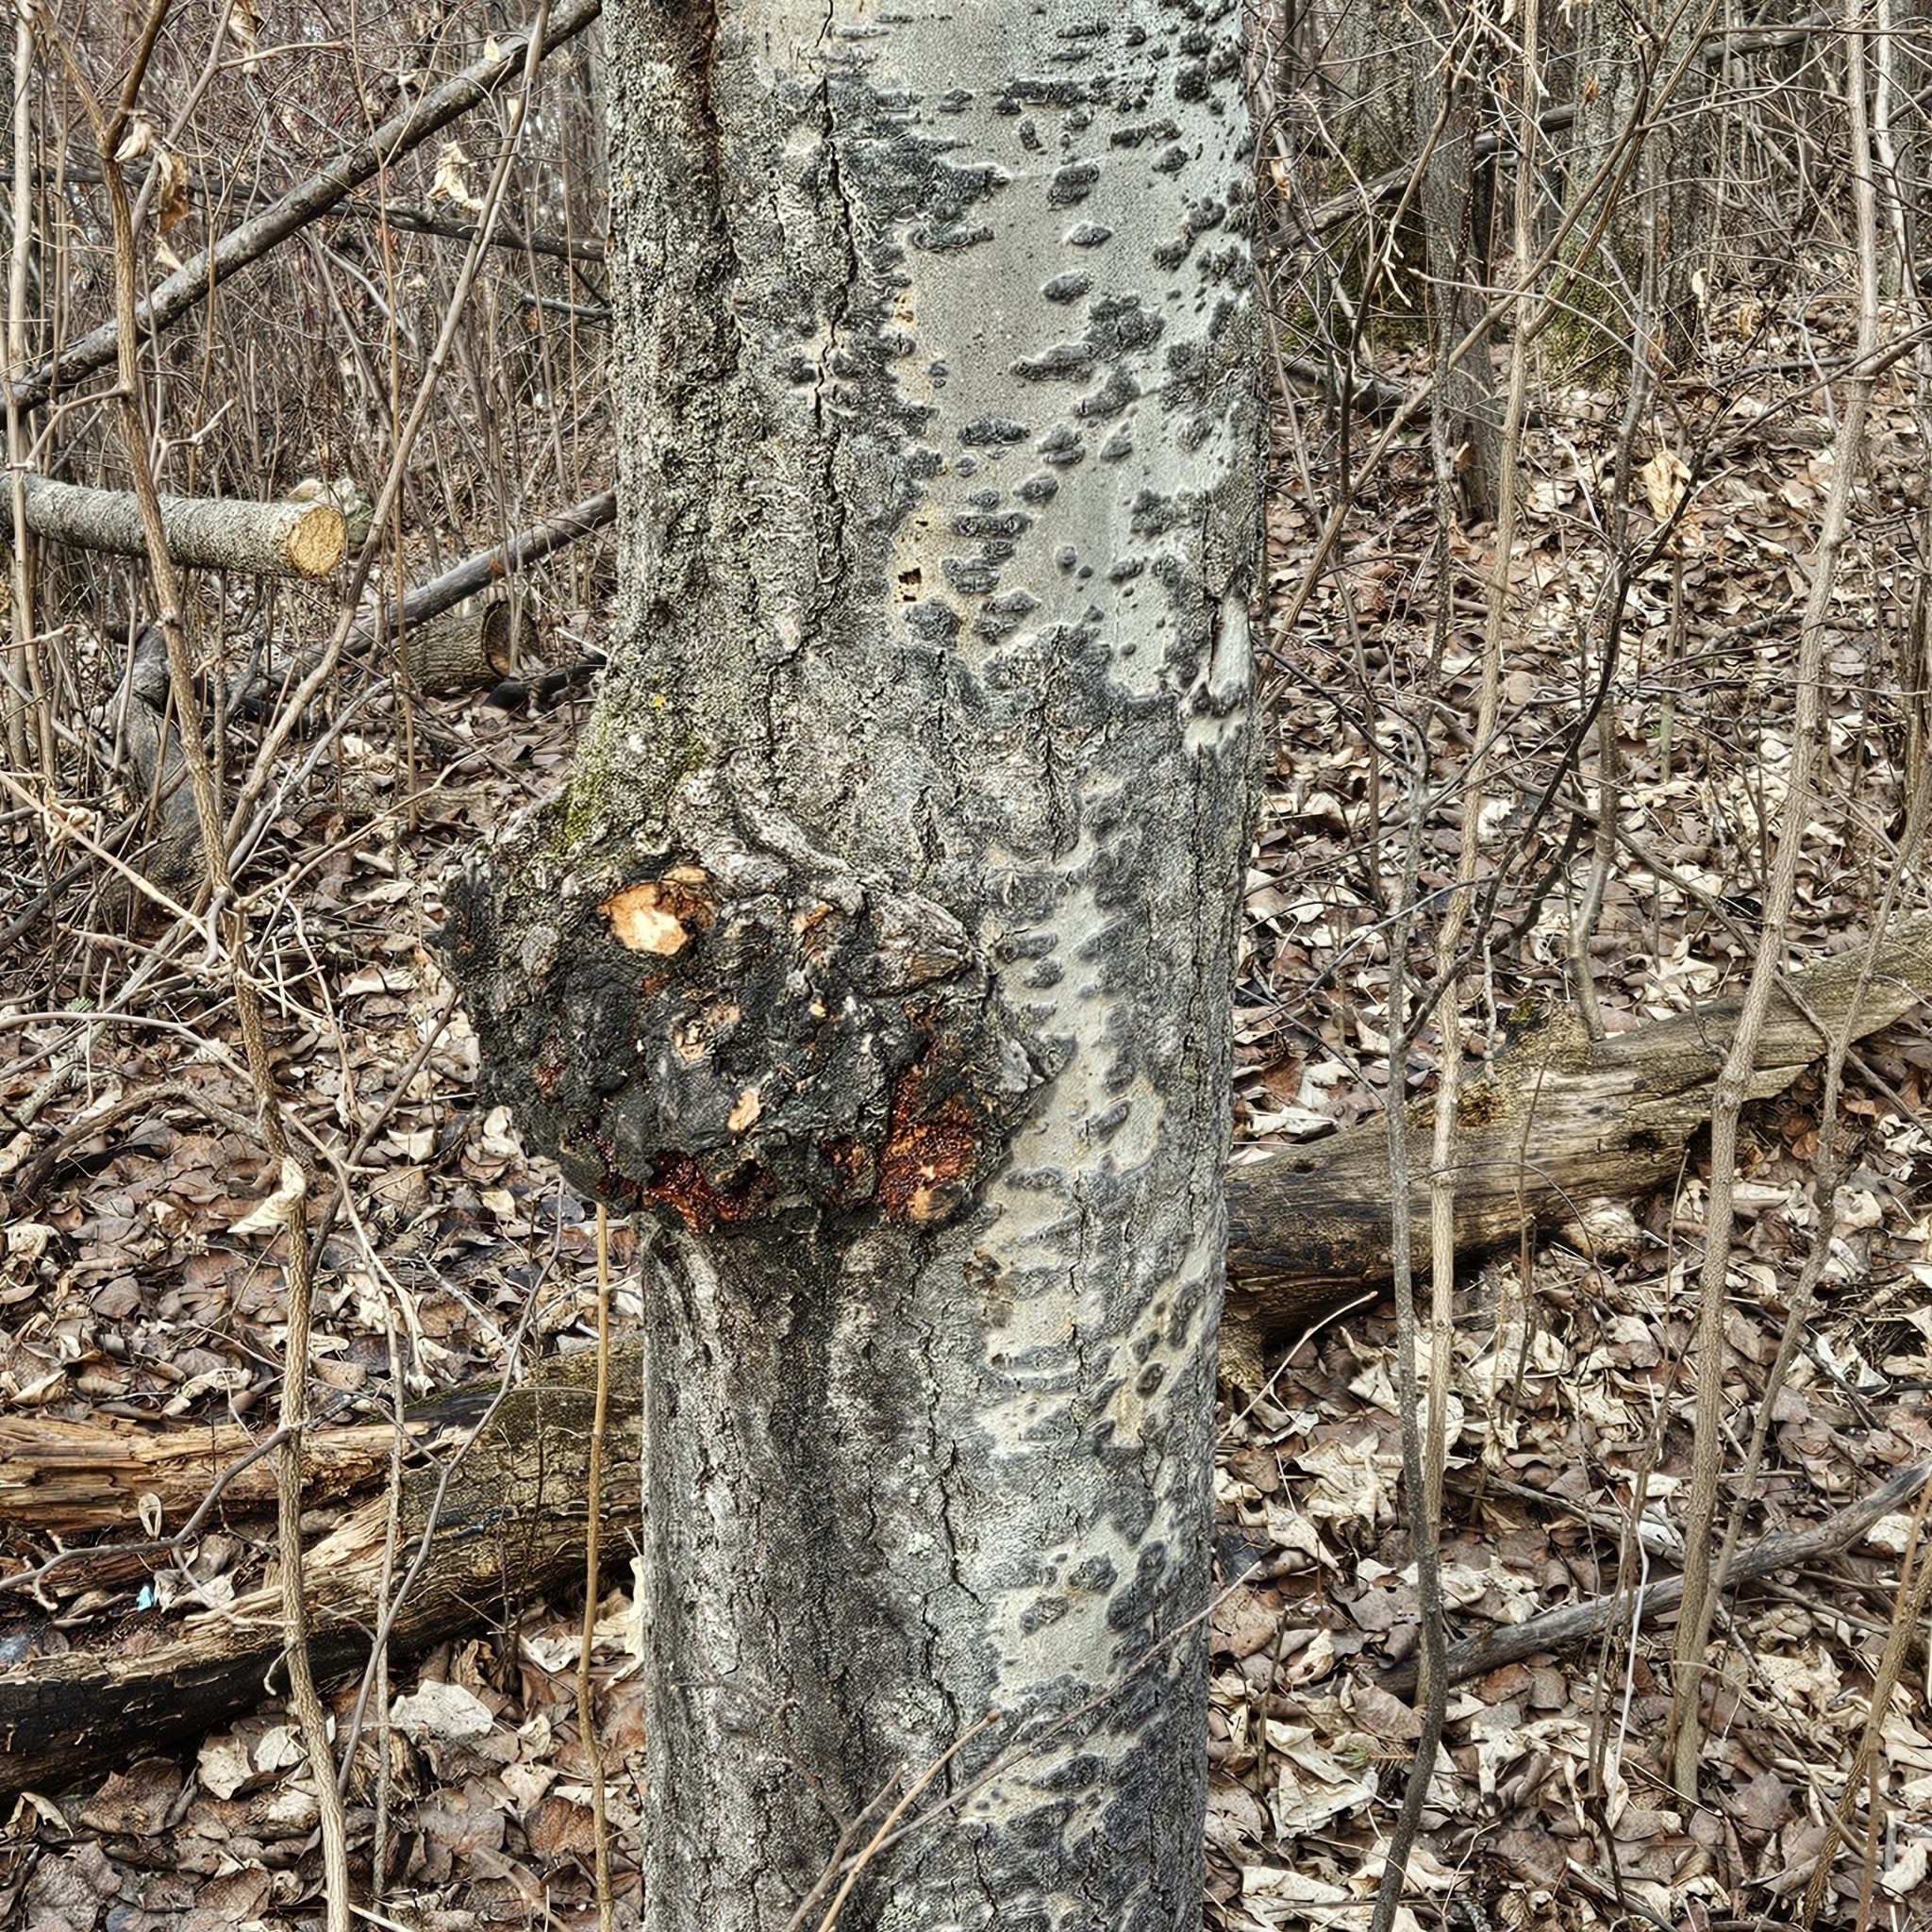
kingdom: Fungi
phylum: Ascomycota
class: Dothideomycetes
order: Botryosphaeriales
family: Botryosphaeriaceae
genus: Diplodia
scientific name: Diplodia tumefaciens
